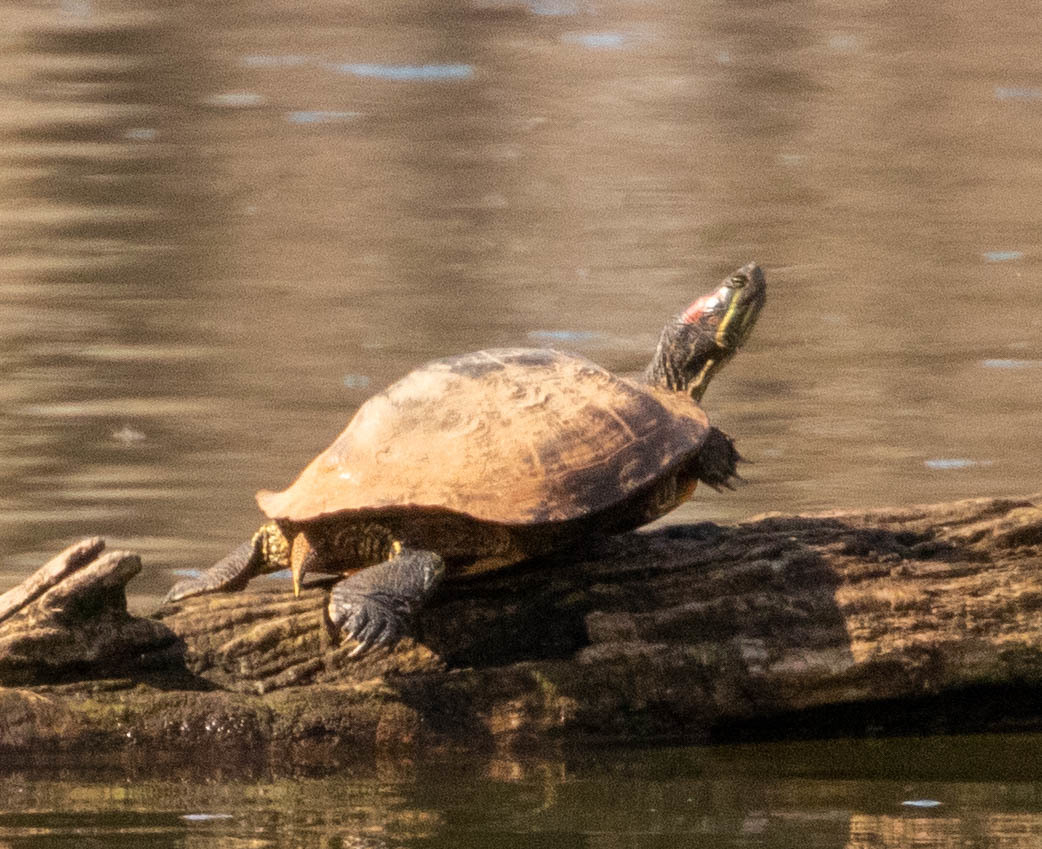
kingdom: Animalia
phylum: Chordata
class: Testudines
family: Emydidae
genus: Trachemys
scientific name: Trachemys scripta
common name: Slider
